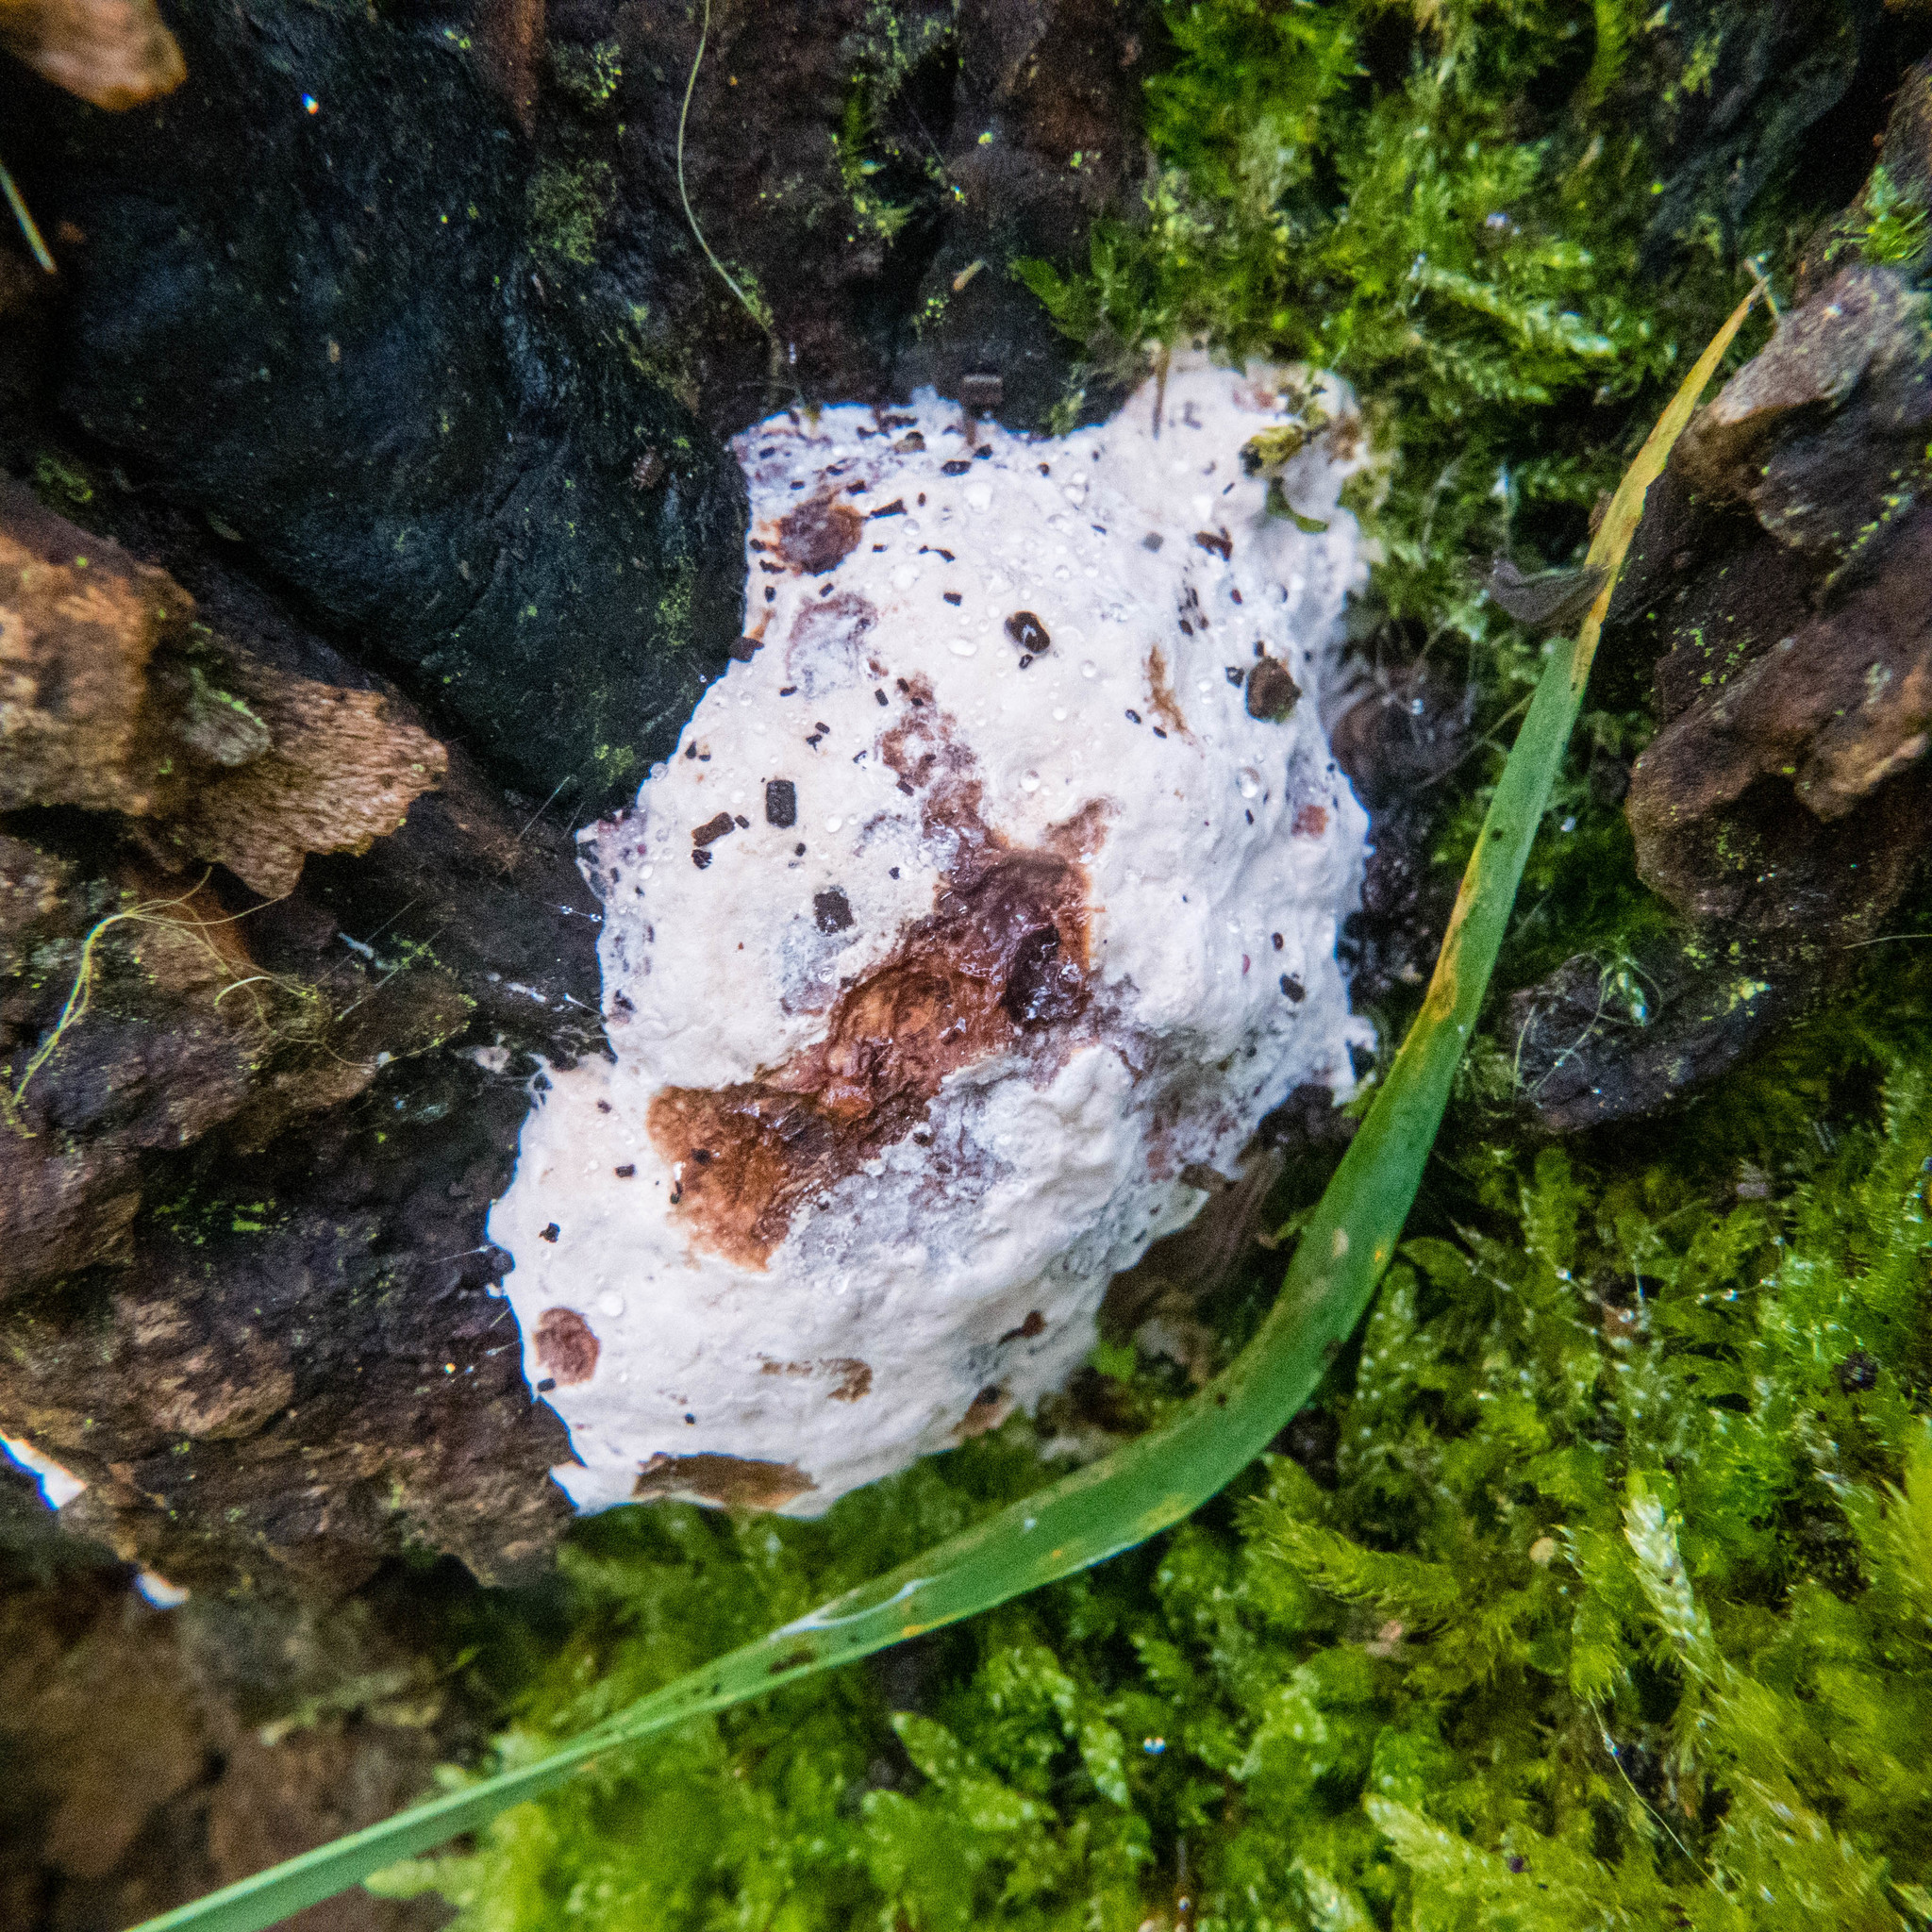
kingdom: Protozoa
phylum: Mycetozoa
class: Myxomycetes
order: Cribrariales
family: Tubiferaceae
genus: Reticularia
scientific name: Reticularia lycoperdon
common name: False puffball
